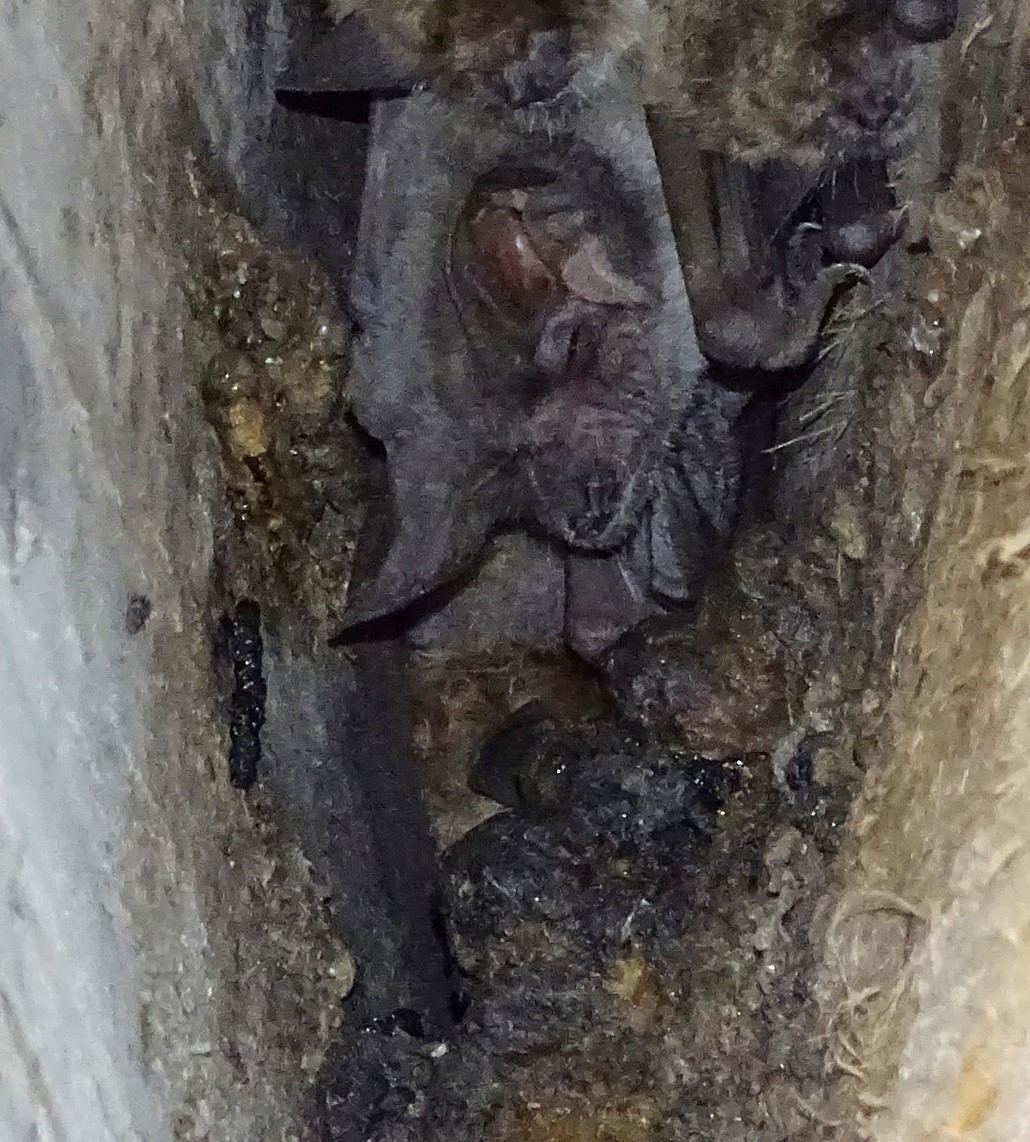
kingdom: Animalia
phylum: Chordata
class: Mammalia
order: Chiroptera
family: Molossidae
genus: Tadarida
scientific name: Tadarida brasiliensis
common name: Mexican free-tailed bat
